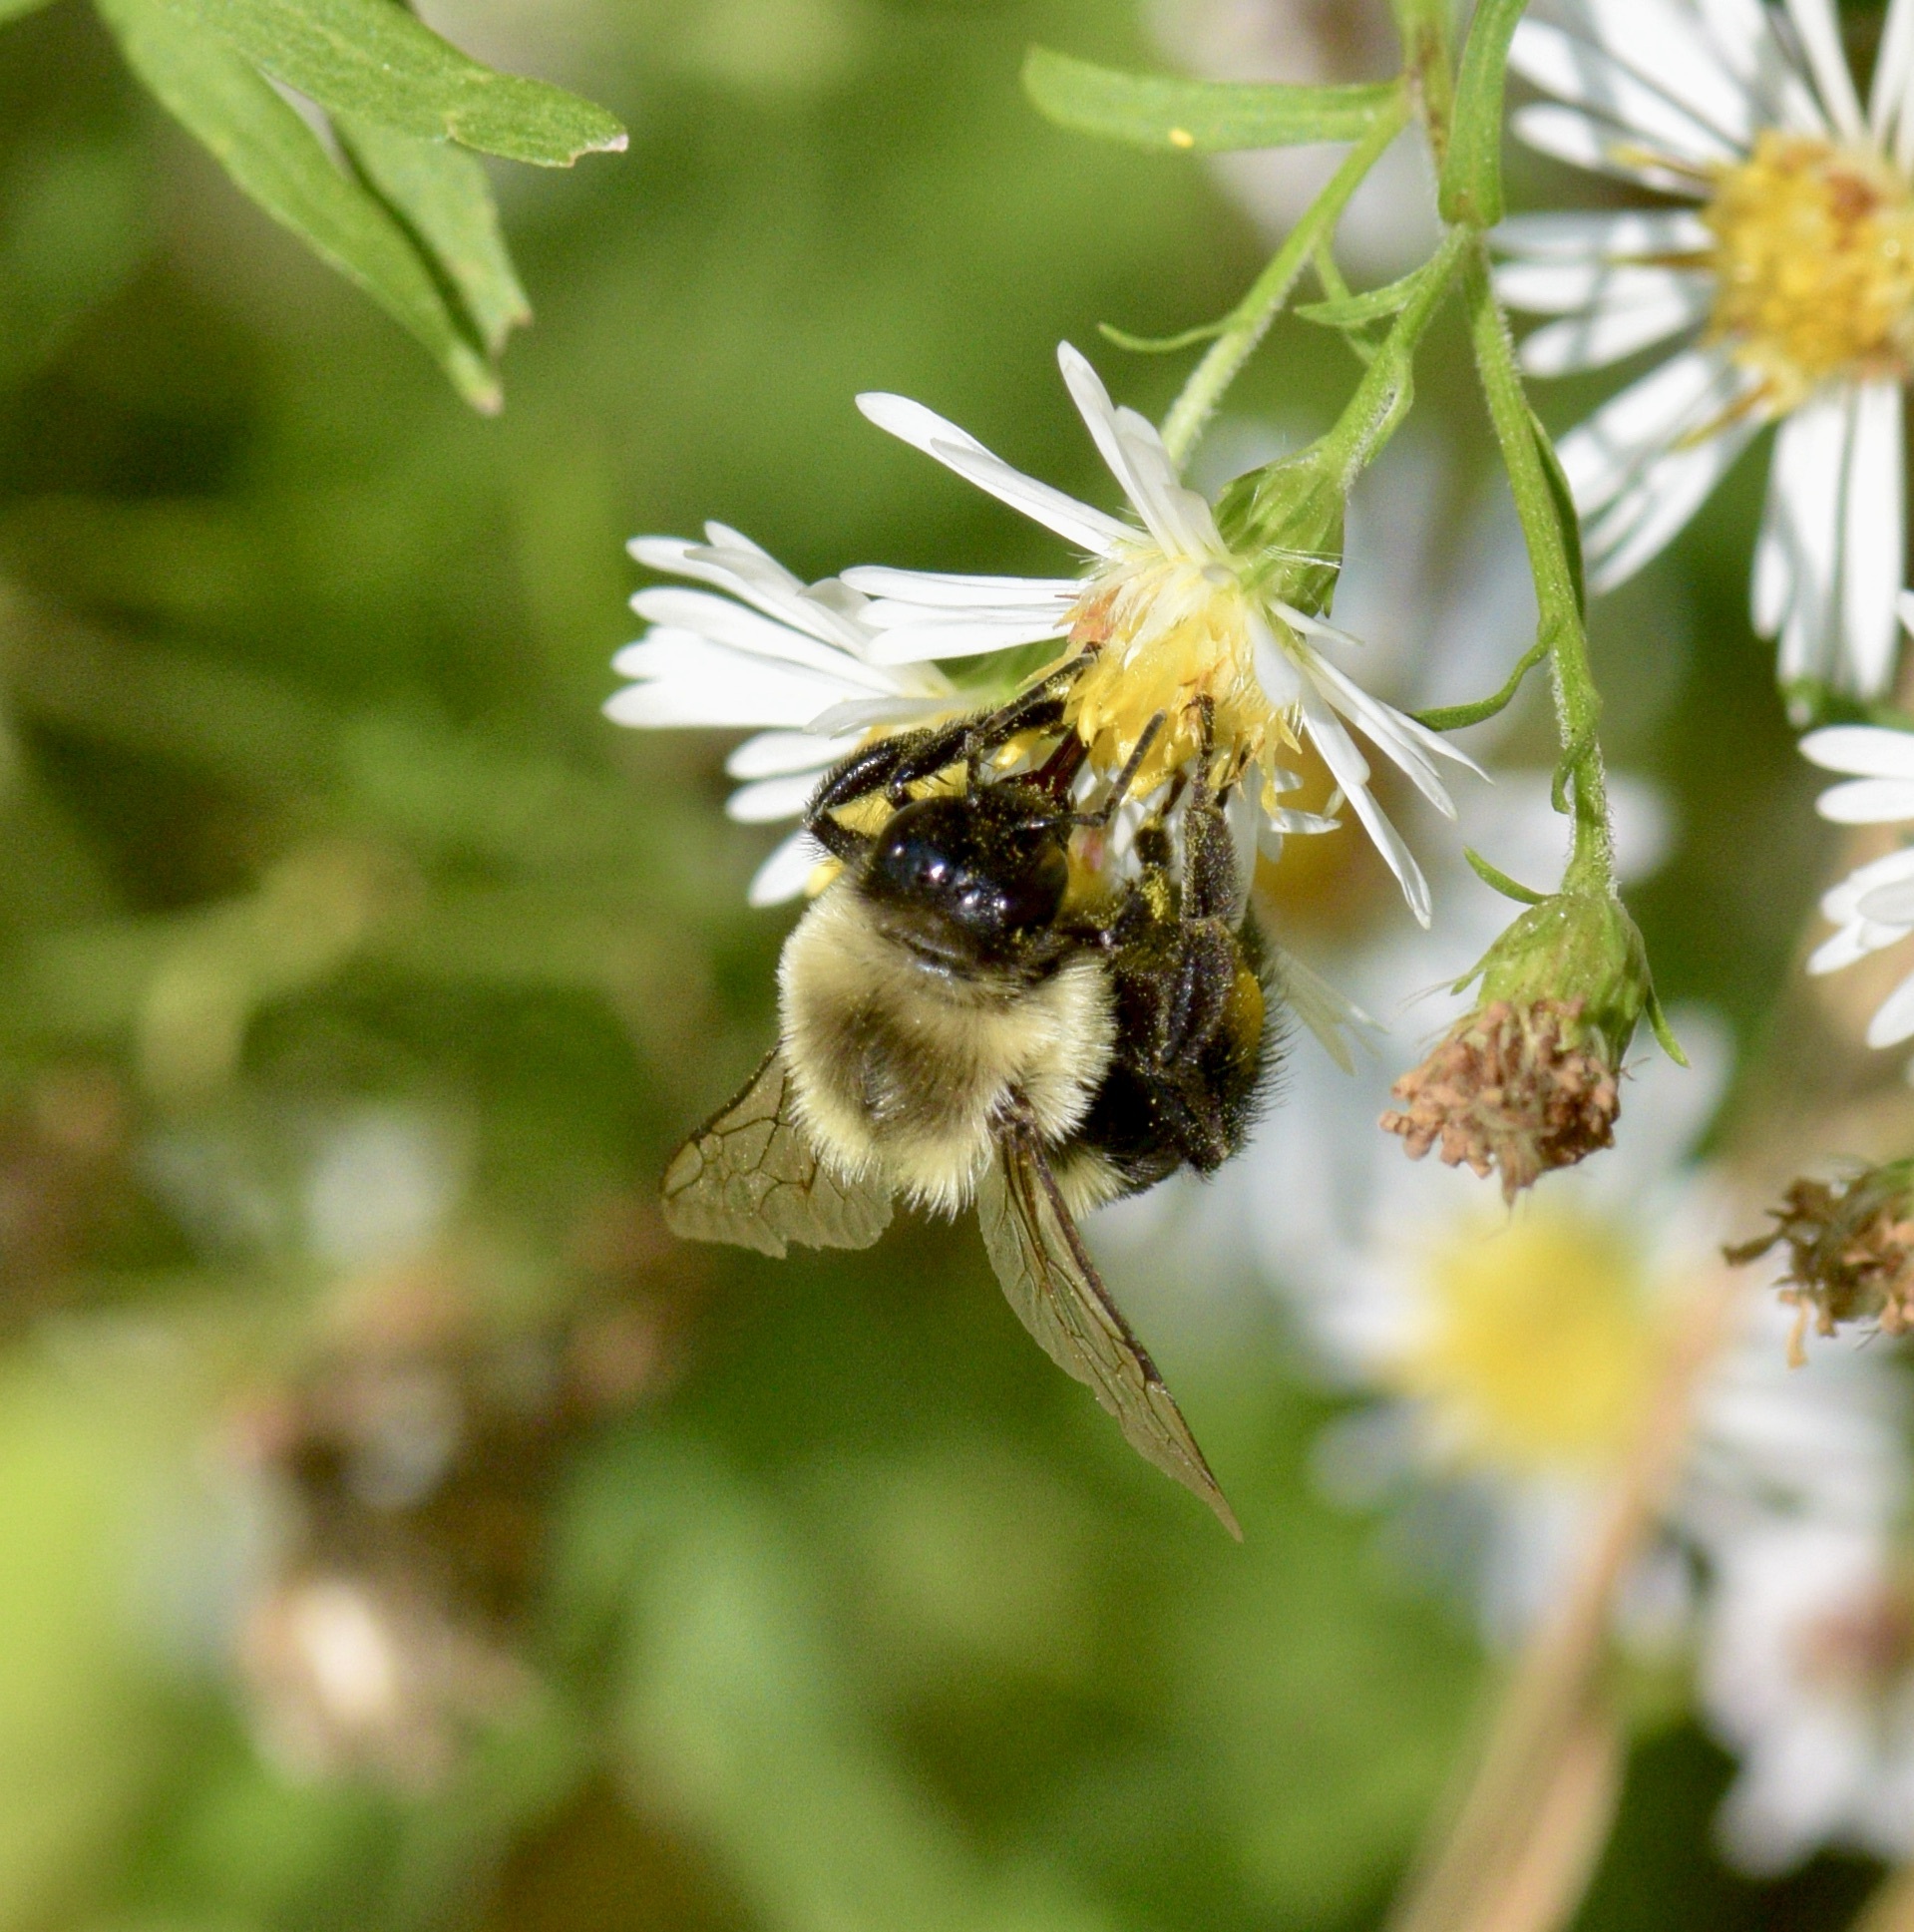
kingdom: Animalia
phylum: Arthropoda
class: Insecta
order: Hymenoptera
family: Apidae
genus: Bombus
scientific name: Bombus impatiens
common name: Common eastern bumble bee
